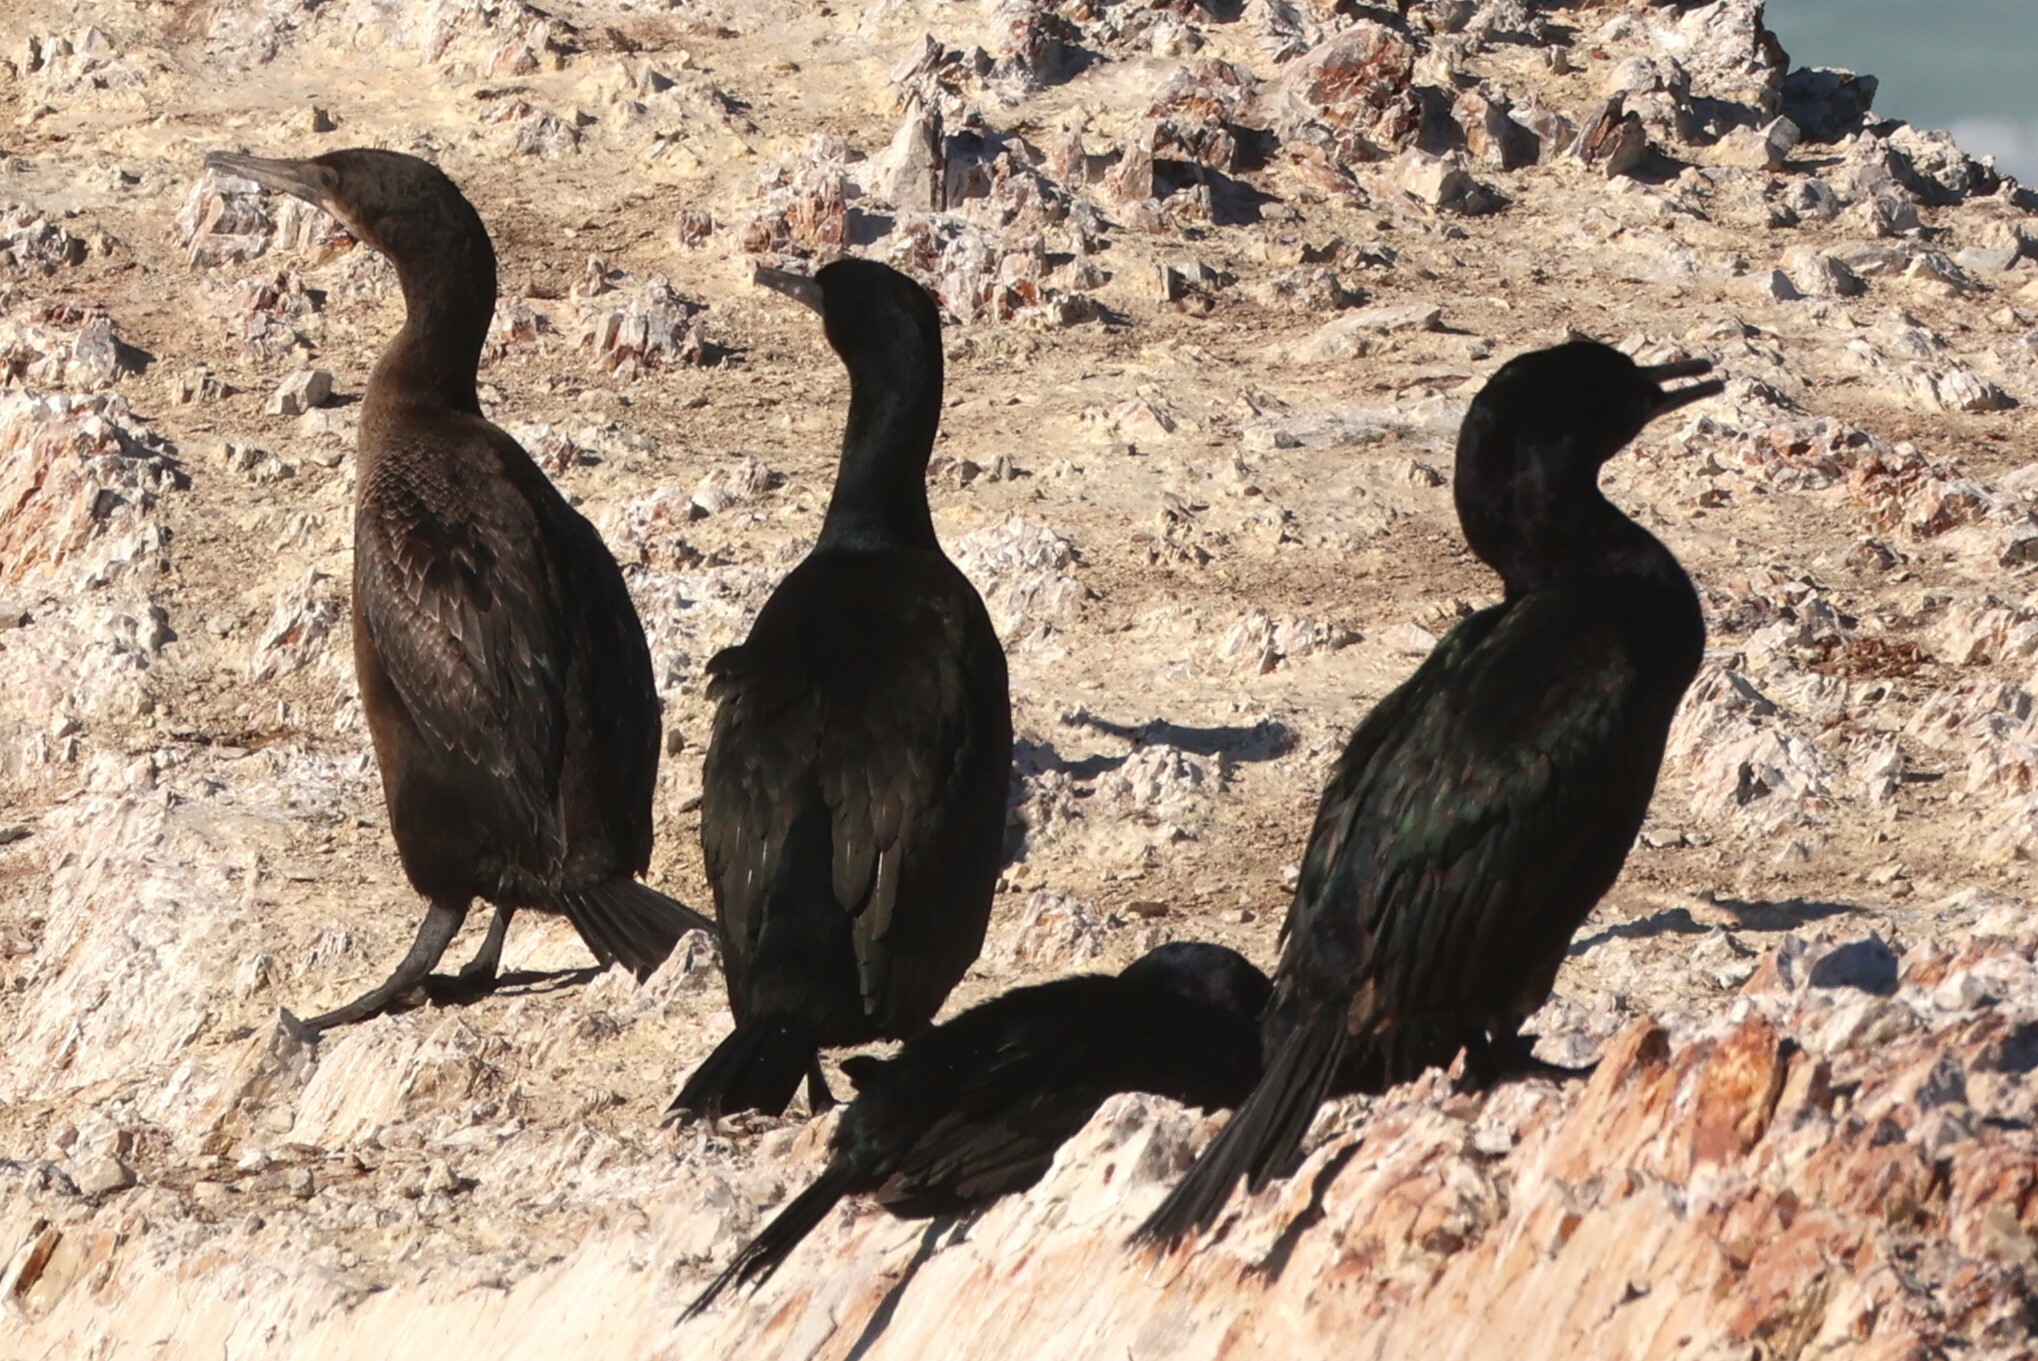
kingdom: Animalia
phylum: Chordata
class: Aves
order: Suliformes
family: Phalacrocoracidae
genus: Urile
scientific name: Urile penicillatus
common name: Brandt's cormorant
